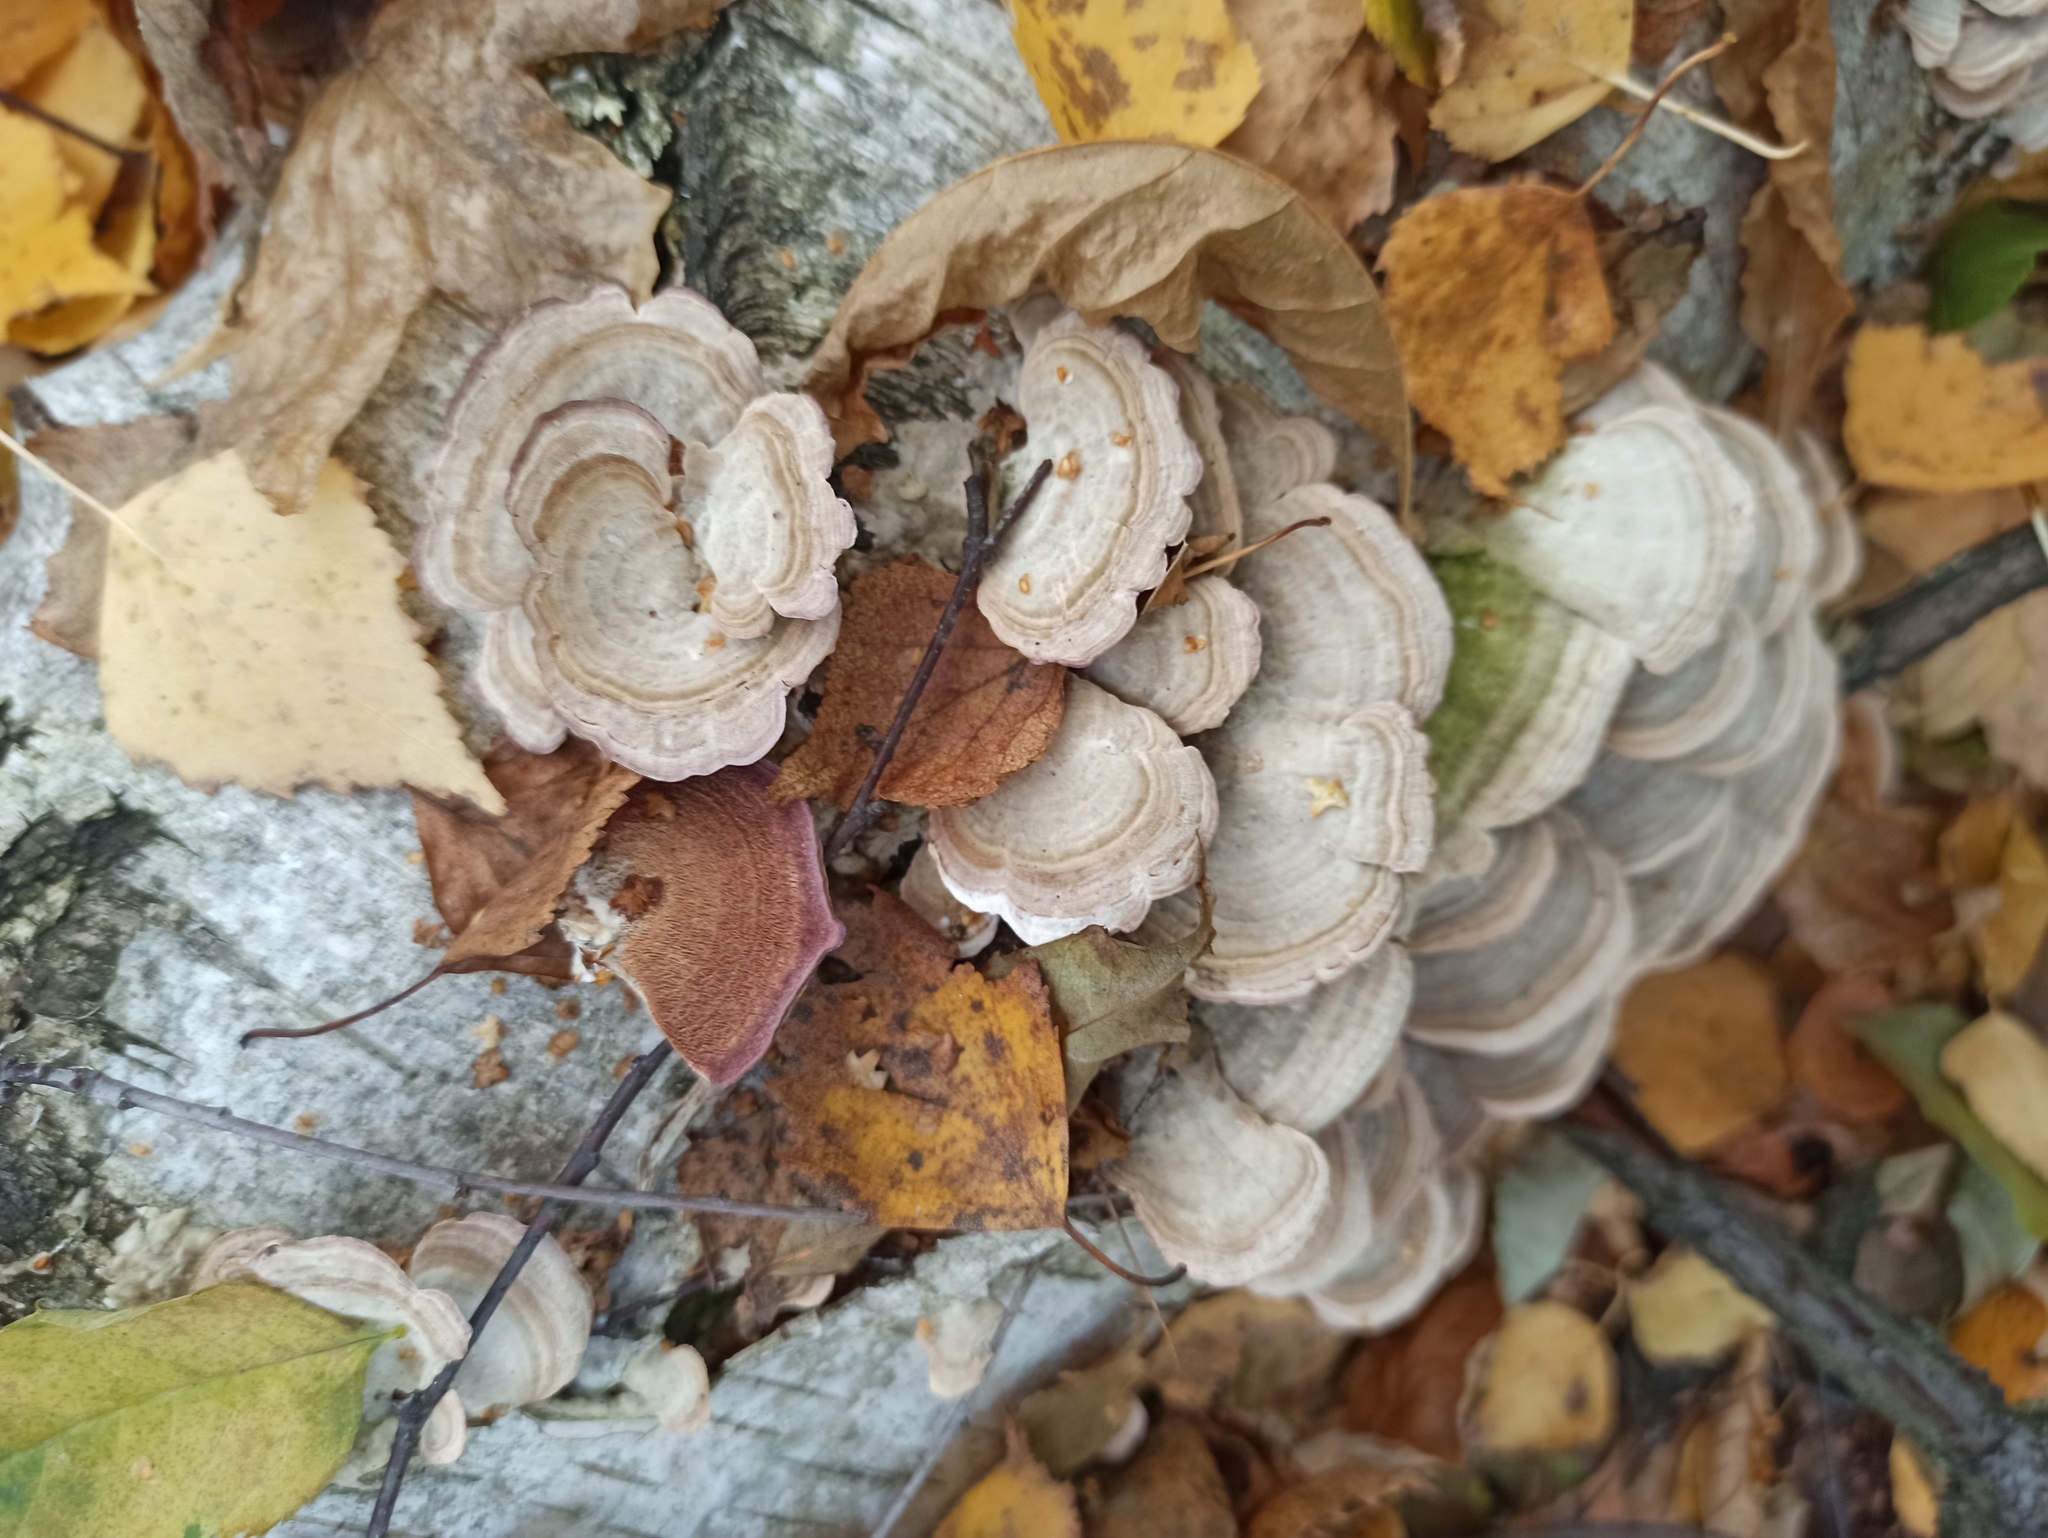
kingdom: Fungi
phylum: Basidiomycota
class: Agaricomycetes
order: Hymenochaetales
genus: Trichaptum
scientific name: Trichaptum biforme
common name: Violet-toothed polypore
